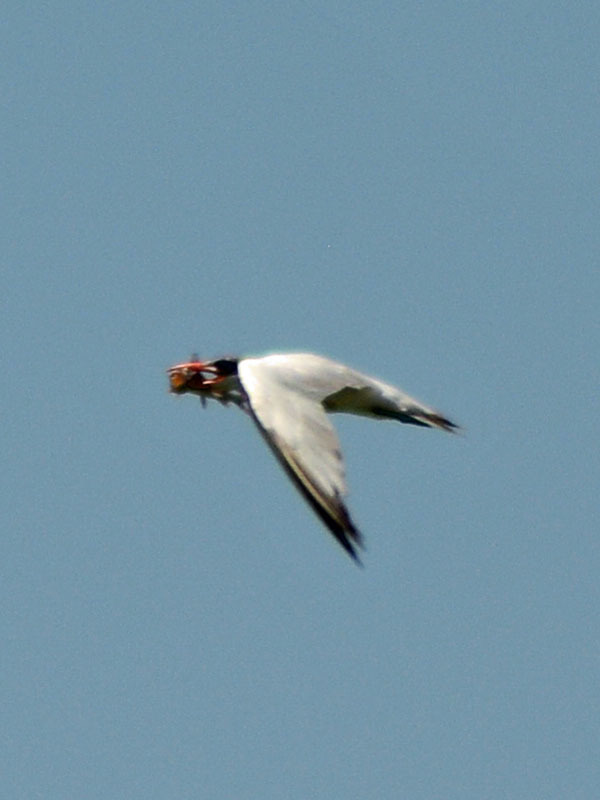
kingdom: Animalia
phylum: Chordata
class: Aves
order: Charadriiformes
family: Laridae
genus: Hydroprogne
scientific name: Hydroprogne caspia
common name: Caspian tern
